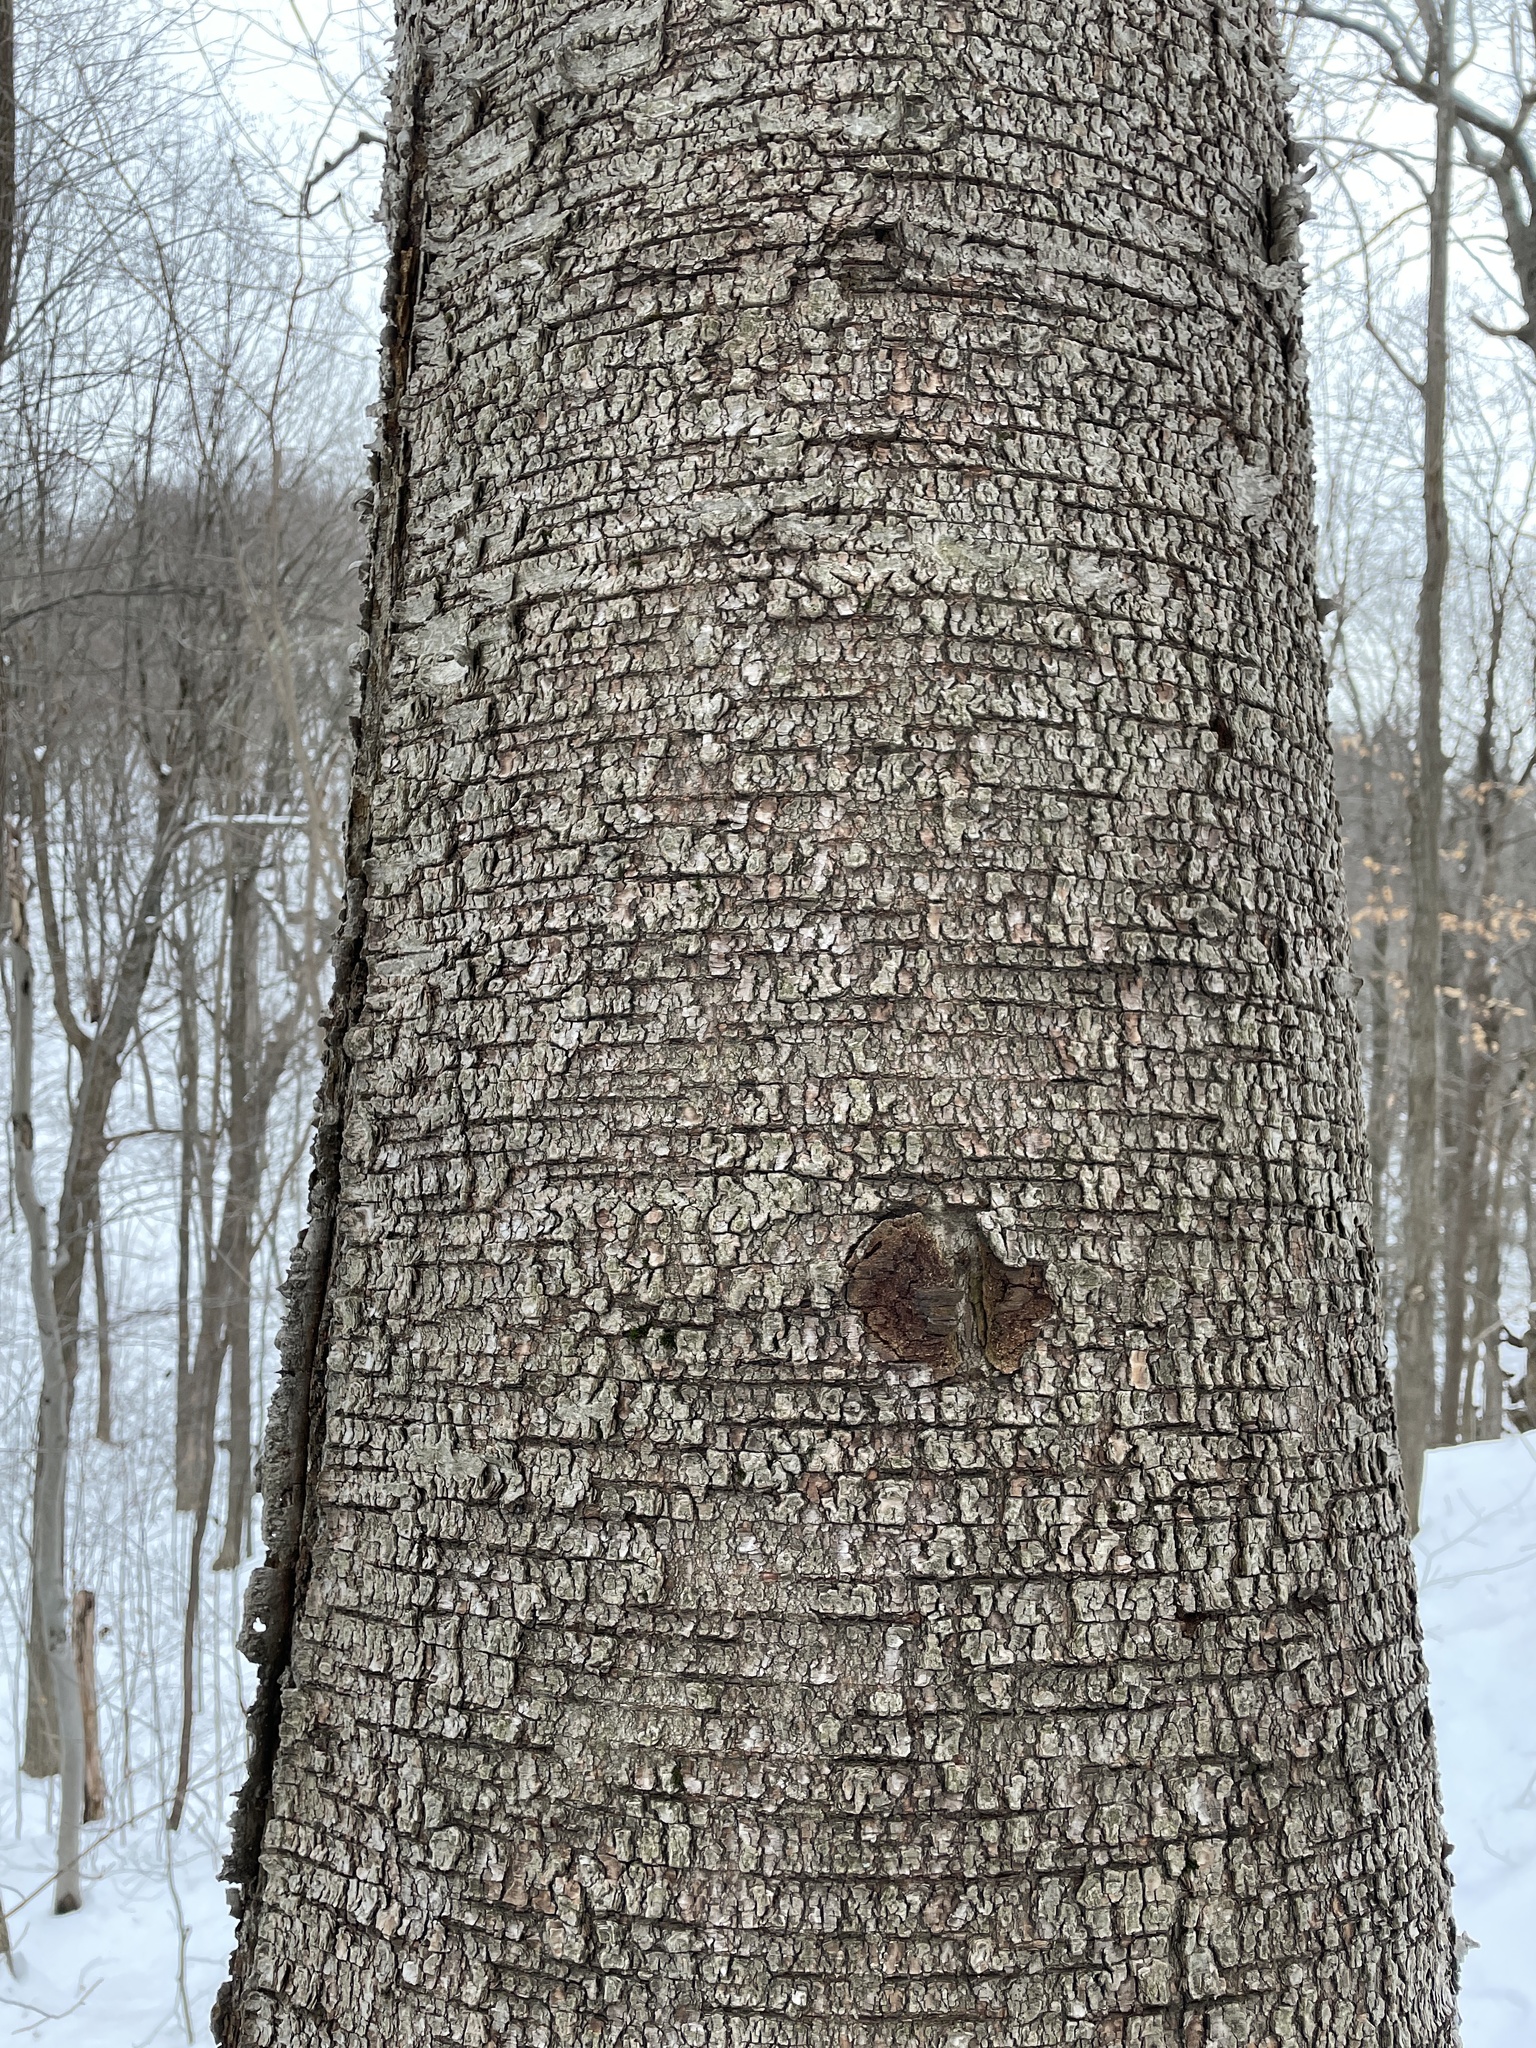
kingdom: Plantae
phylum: Tracheophyta
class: Magnoliopsida
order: Fagales
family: Betulaceae
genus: Betula
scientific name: Betula papyrifera
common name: Paper birch
